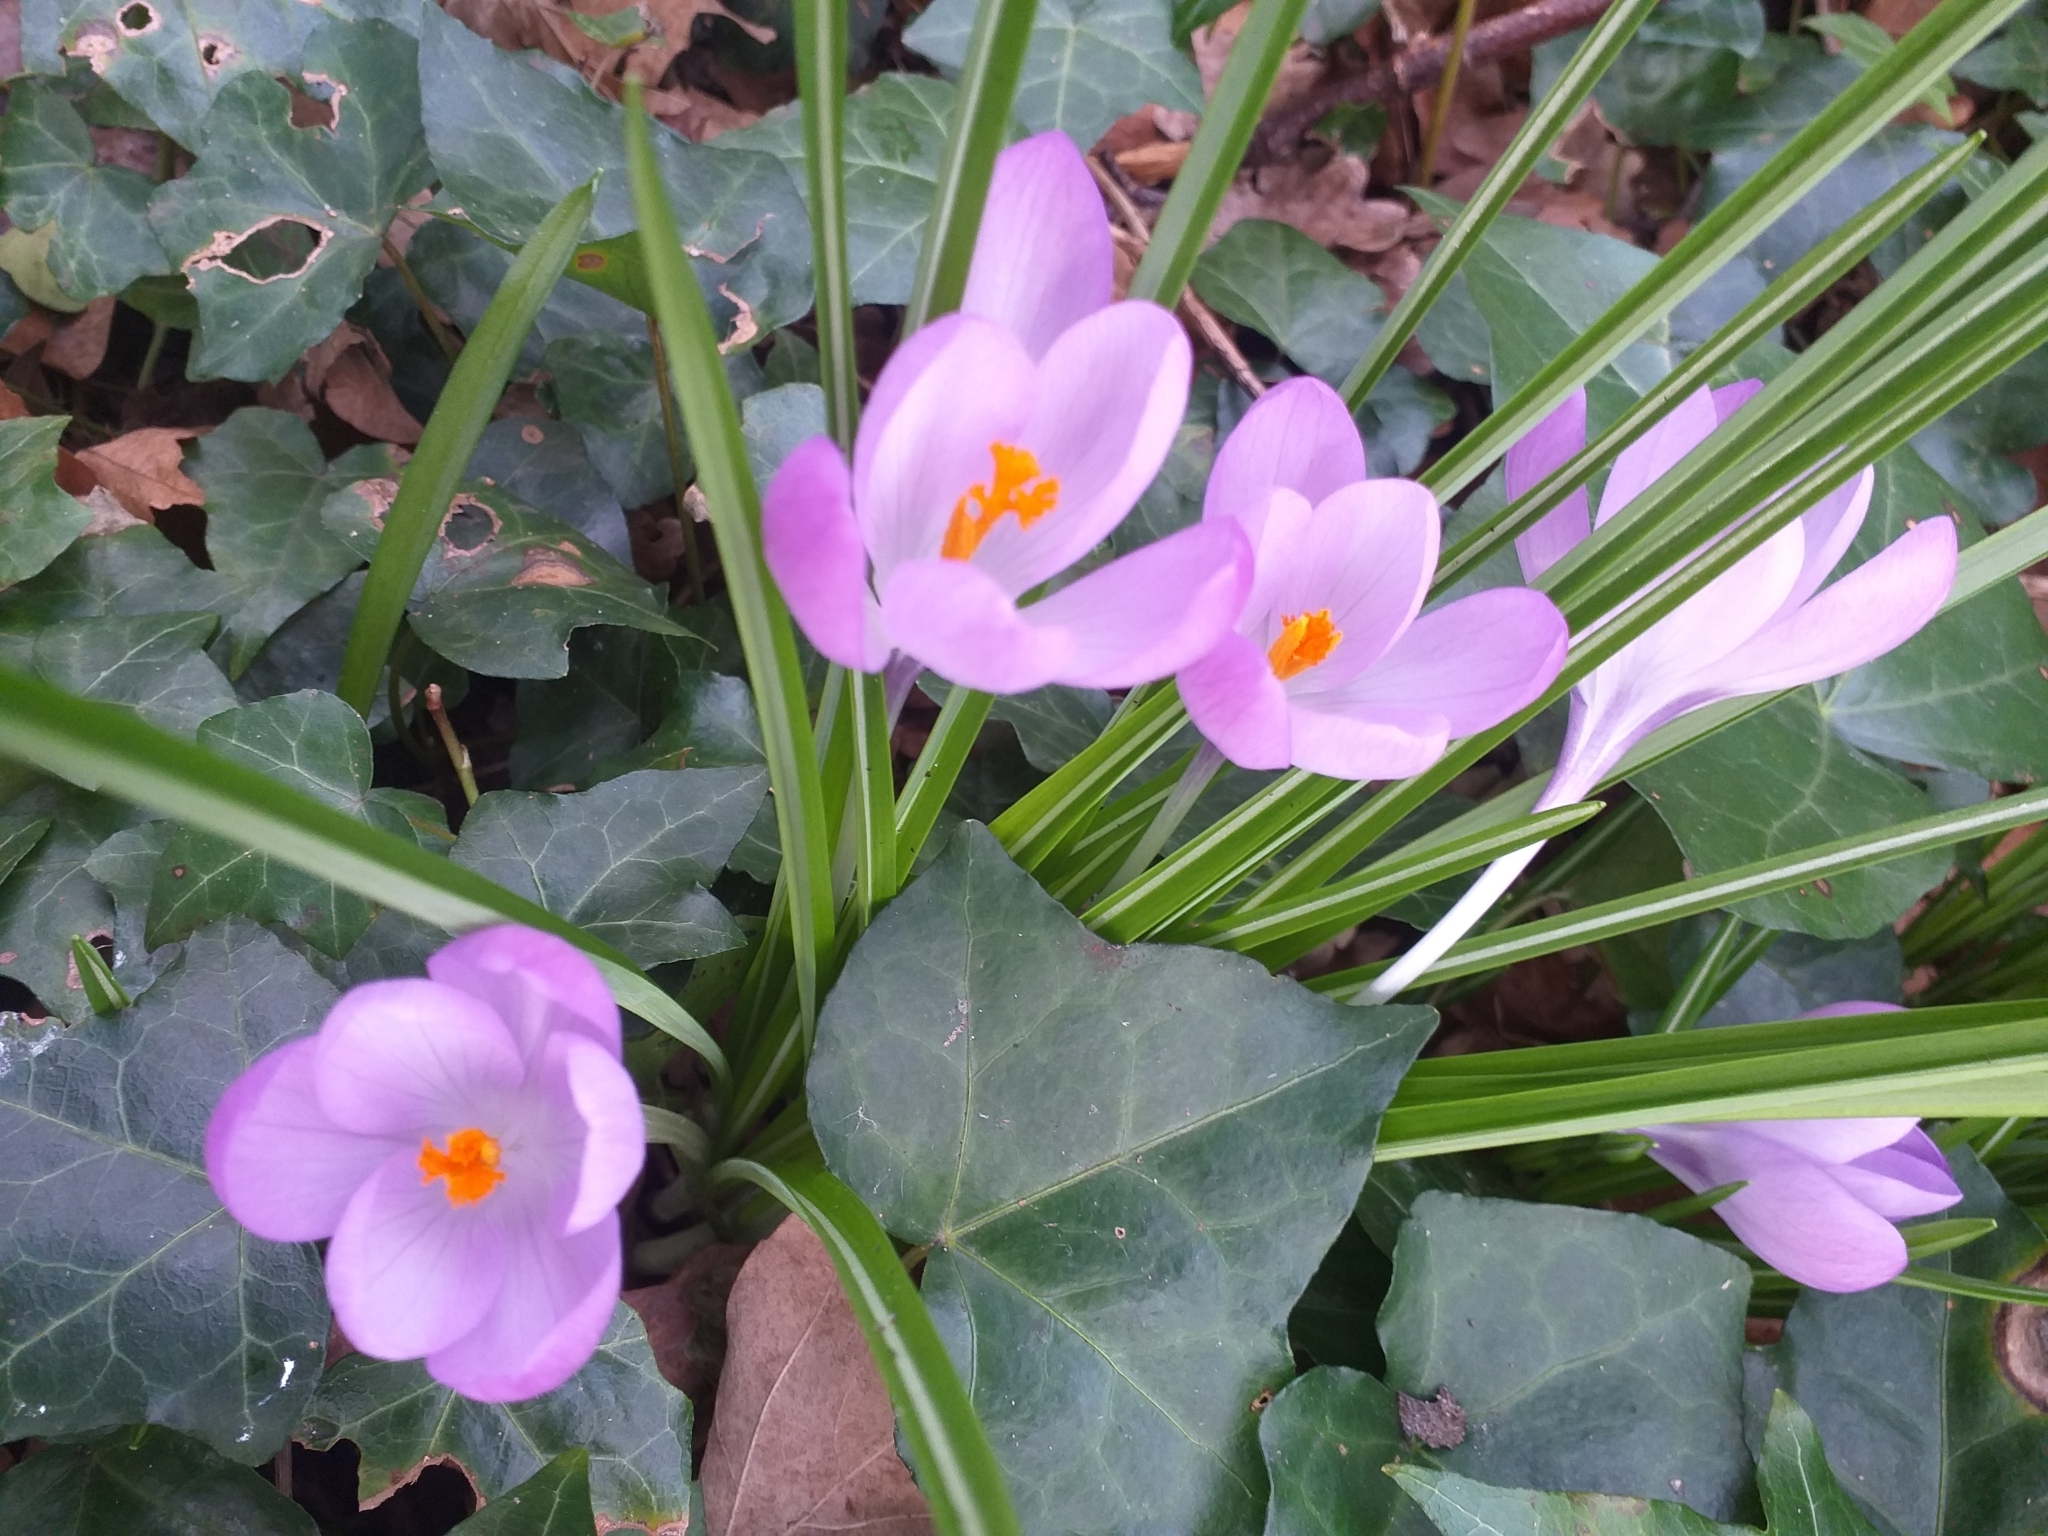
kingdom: Plantae
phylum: Tracheophyta
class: Liliopsida
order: Asparagales
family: Iridaceae
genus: Crocus
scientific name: Crocus tommasinianus
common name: Early crocus
